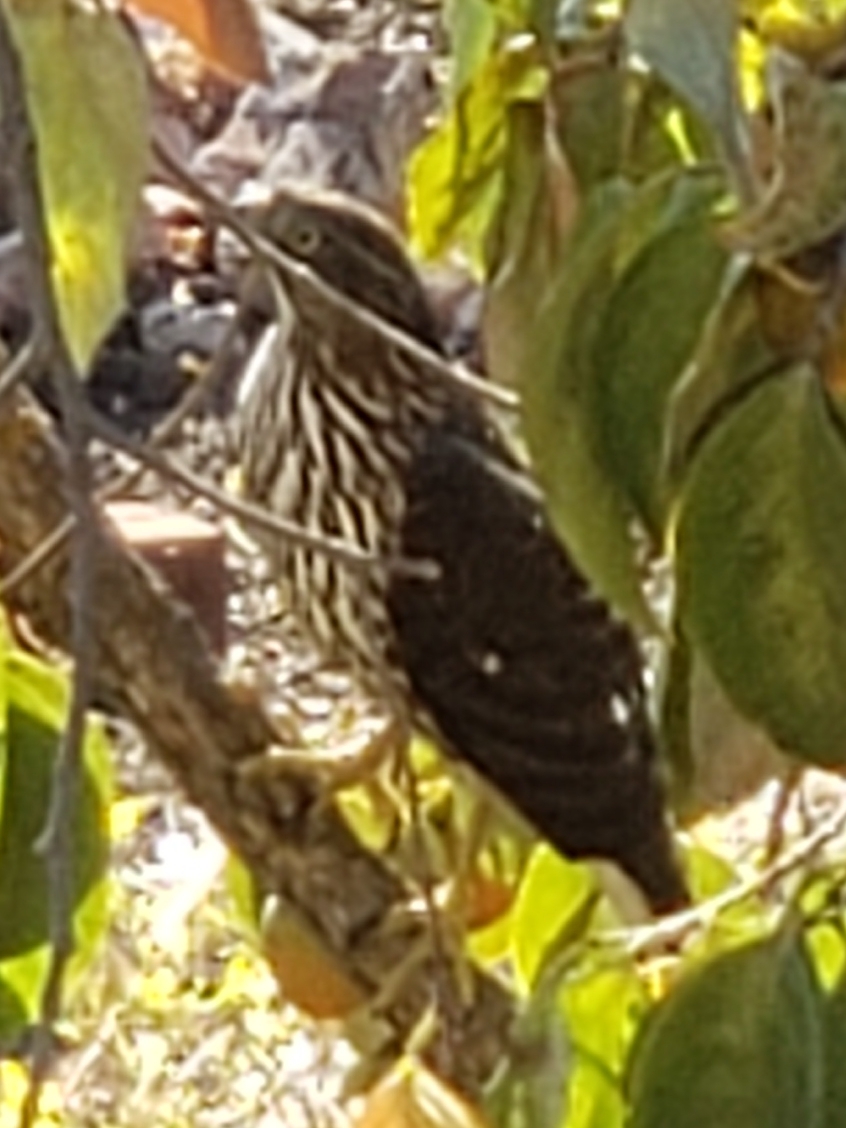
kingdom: Animalia
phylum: Chordata
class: Aves
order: Accipitriformes
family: Accipitridae
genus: Accipiter
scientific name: Accipiter cooperii
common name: Cooper's hawk
